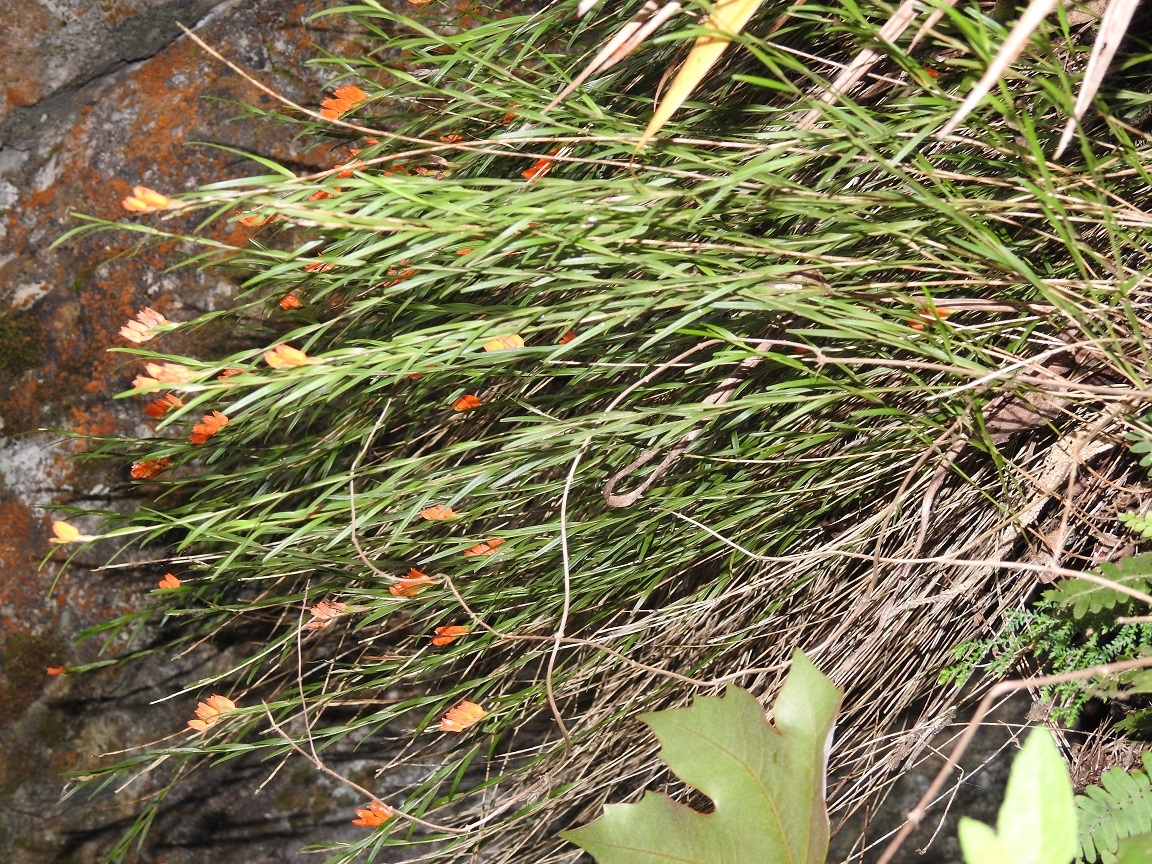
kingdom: Plantae
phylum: Tracheophyta
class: Liliopsida
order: Asparagales
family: Orchidaceae
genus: Isochilus
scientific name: Isochilus aurantiacus
